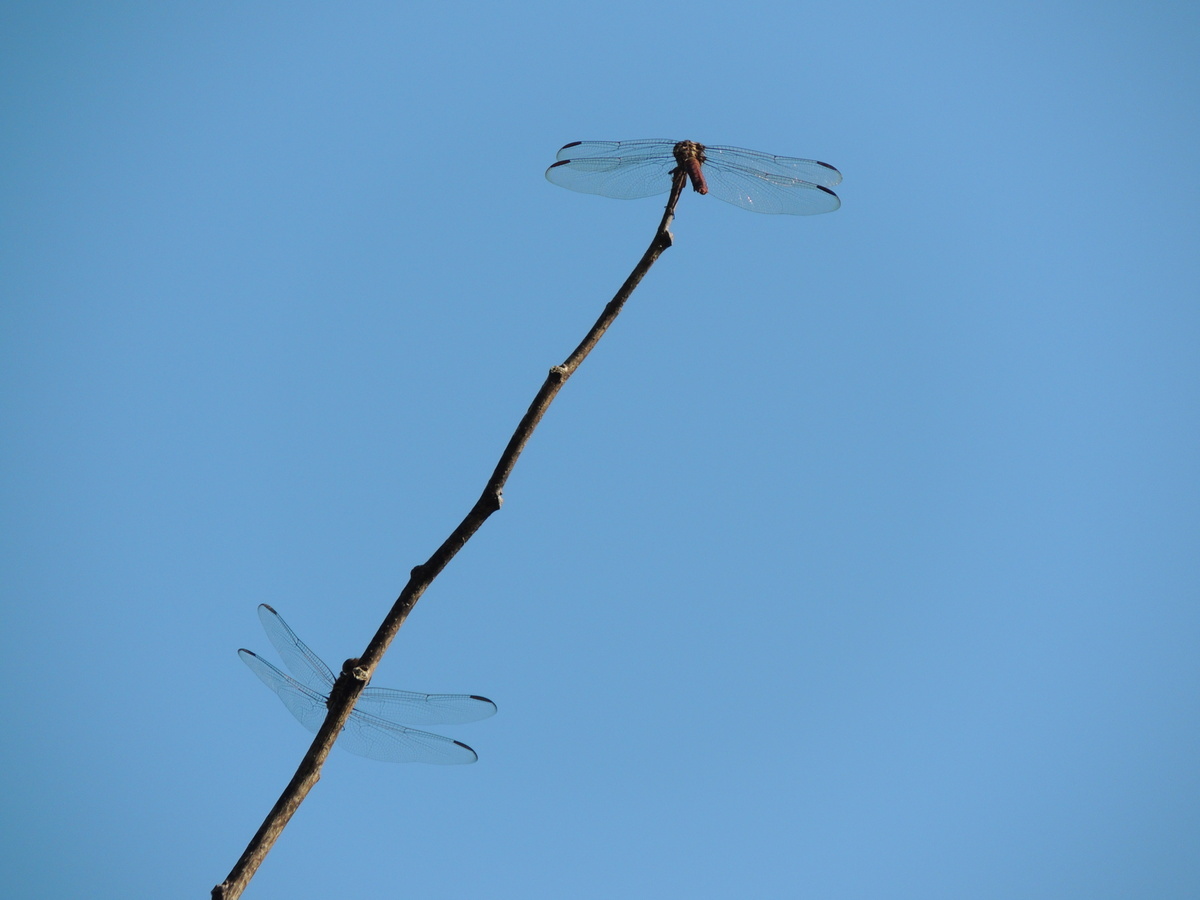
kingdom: Animalia
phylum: Arthropoda
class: Insecta
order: Odonata
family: Libellulidae
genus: Orthemis
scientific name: Orthemis ferruginea
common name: Roseate skimmer
